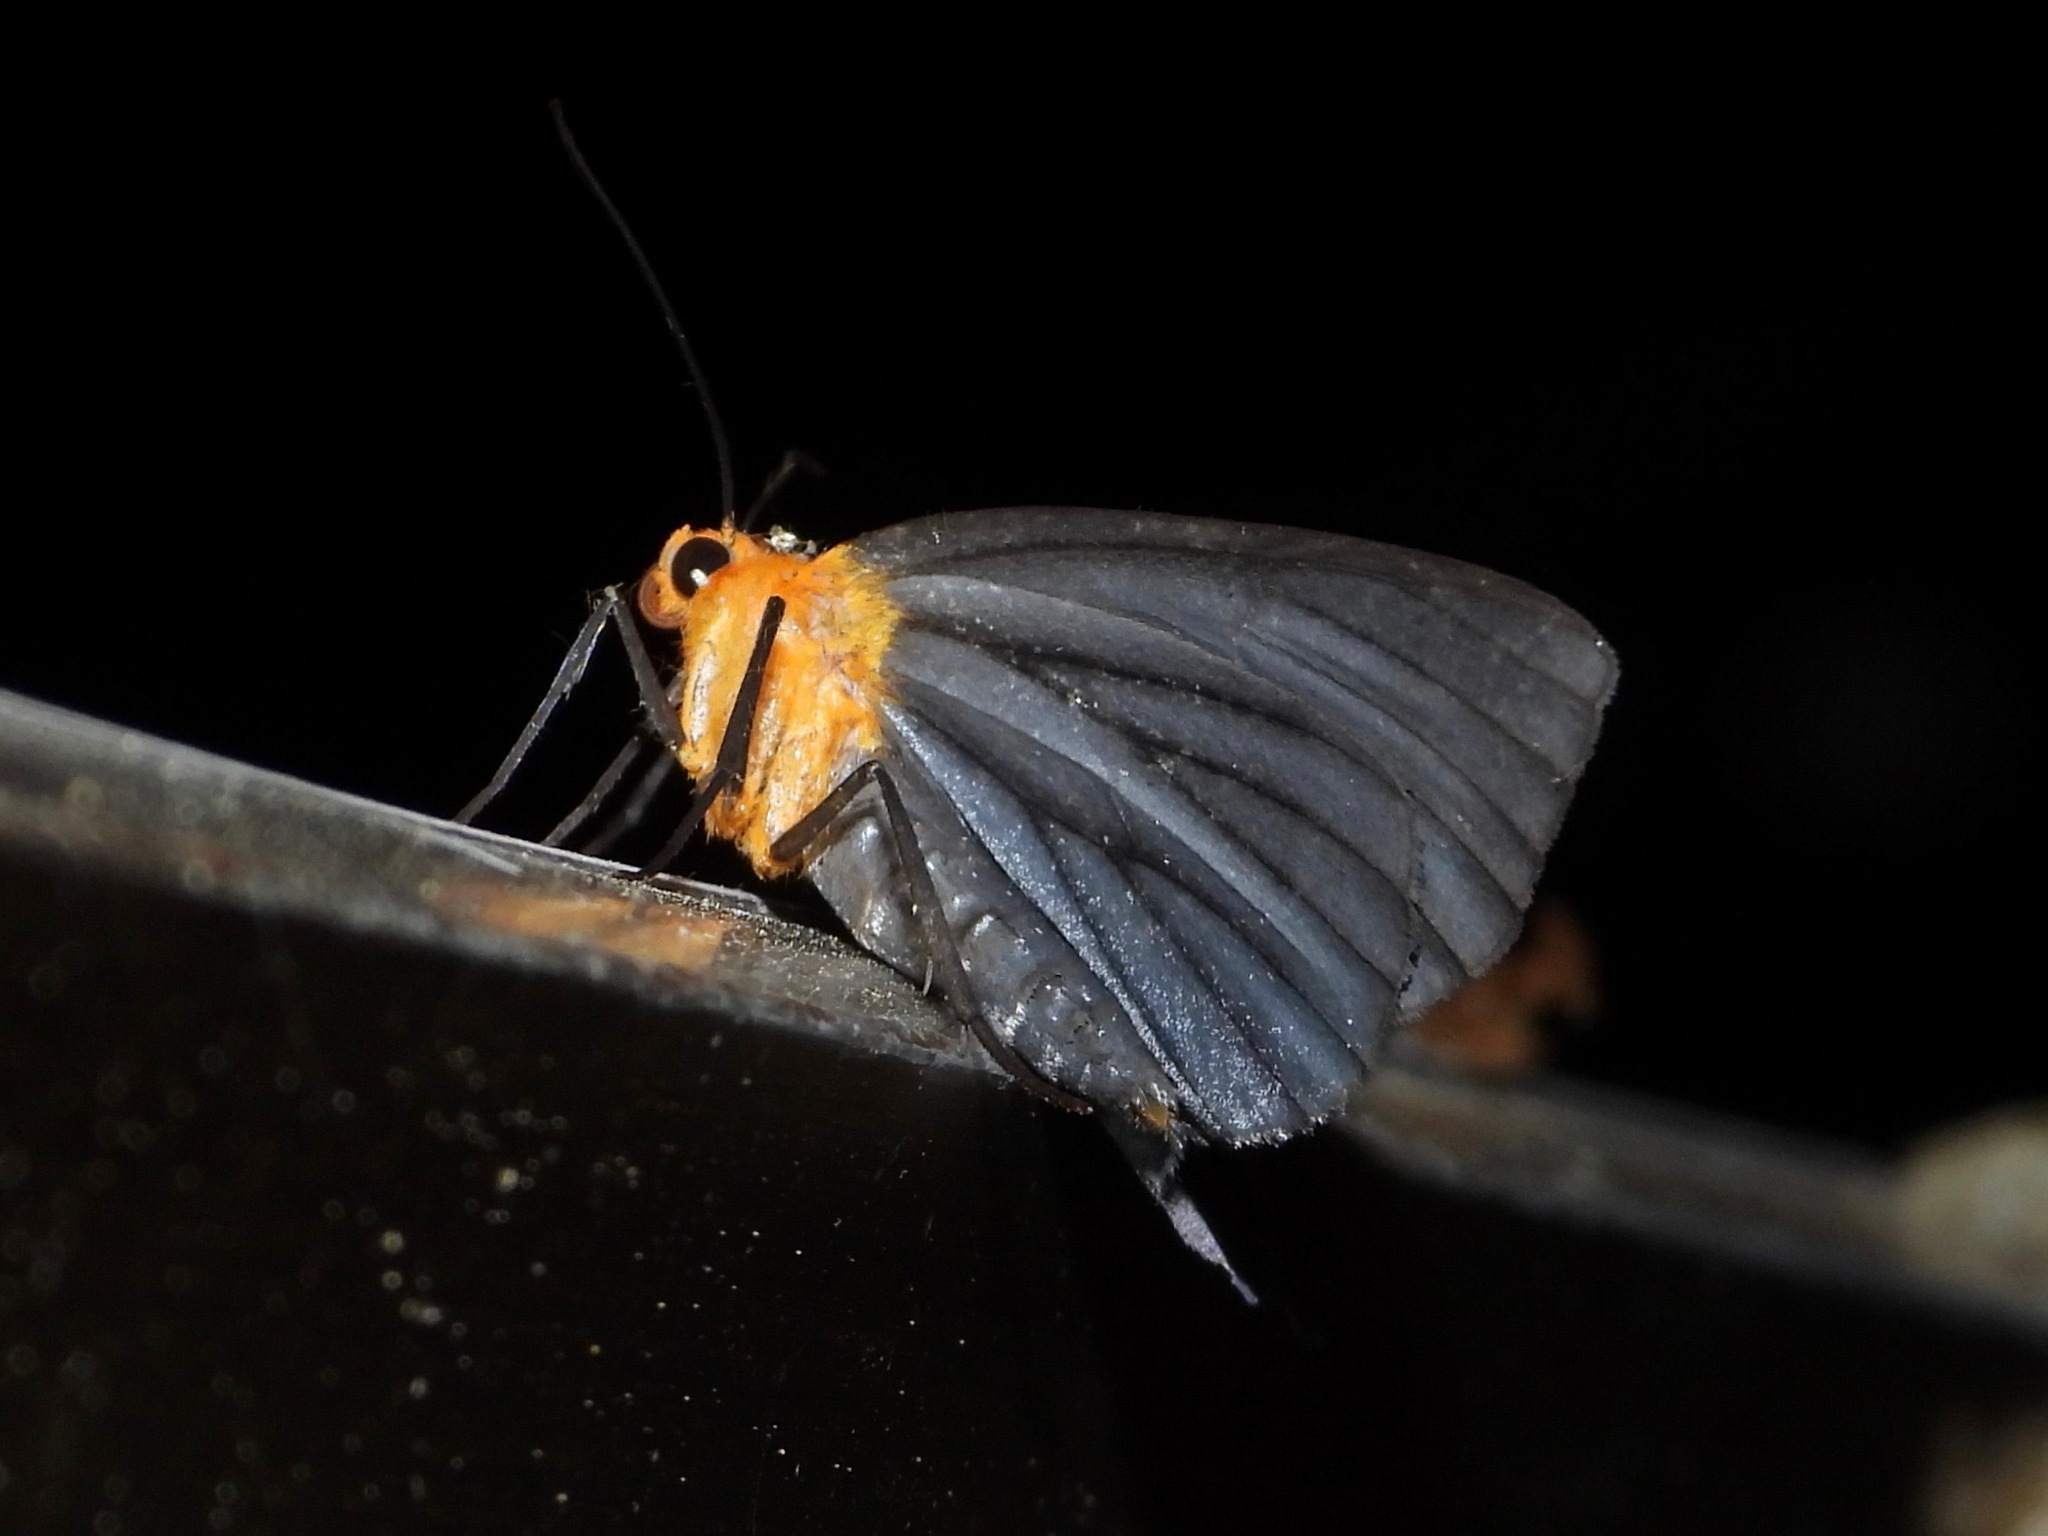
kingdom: Animalia
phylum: Arthropoda
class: Insecta
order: Lepidoptera
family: Geometridae
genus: Simena
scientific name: Simena
